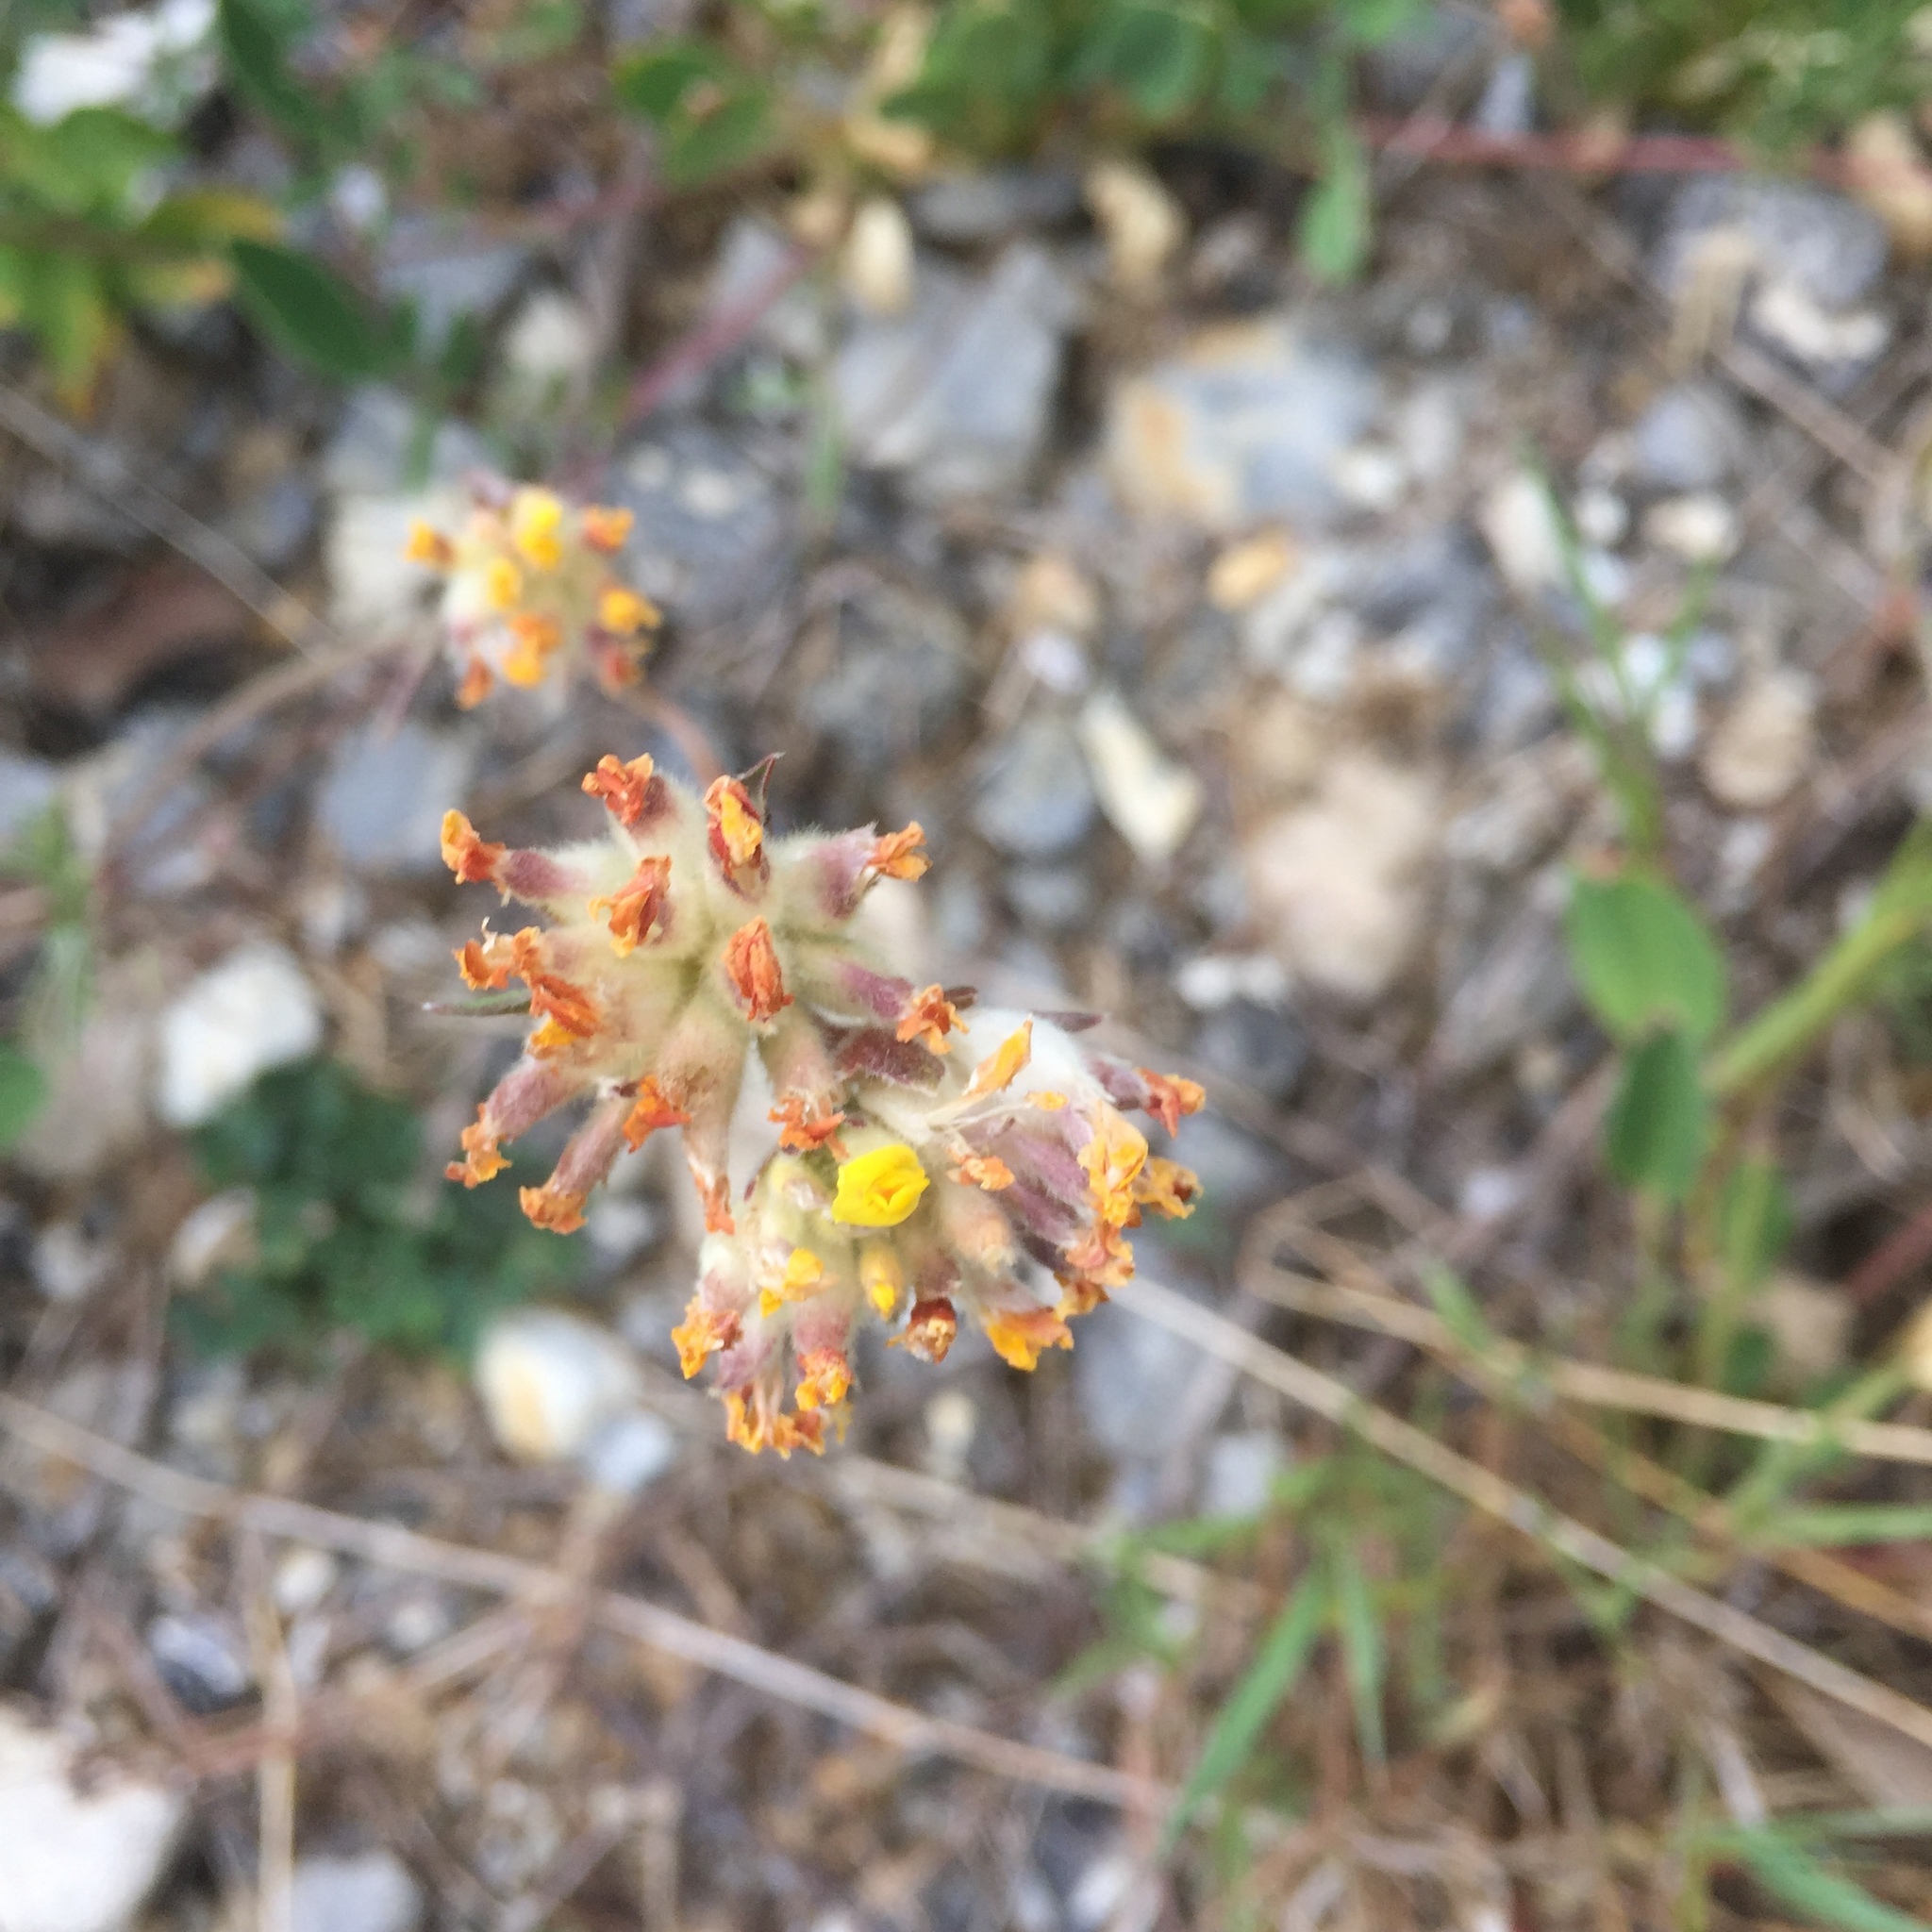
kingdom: Plantae
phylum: Tracheophyta
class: Magnoliopsida
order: Fabales
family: Fabaceae
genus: Anthyllis
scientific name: Anthyllis vulneraria
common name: Kidney vetch
